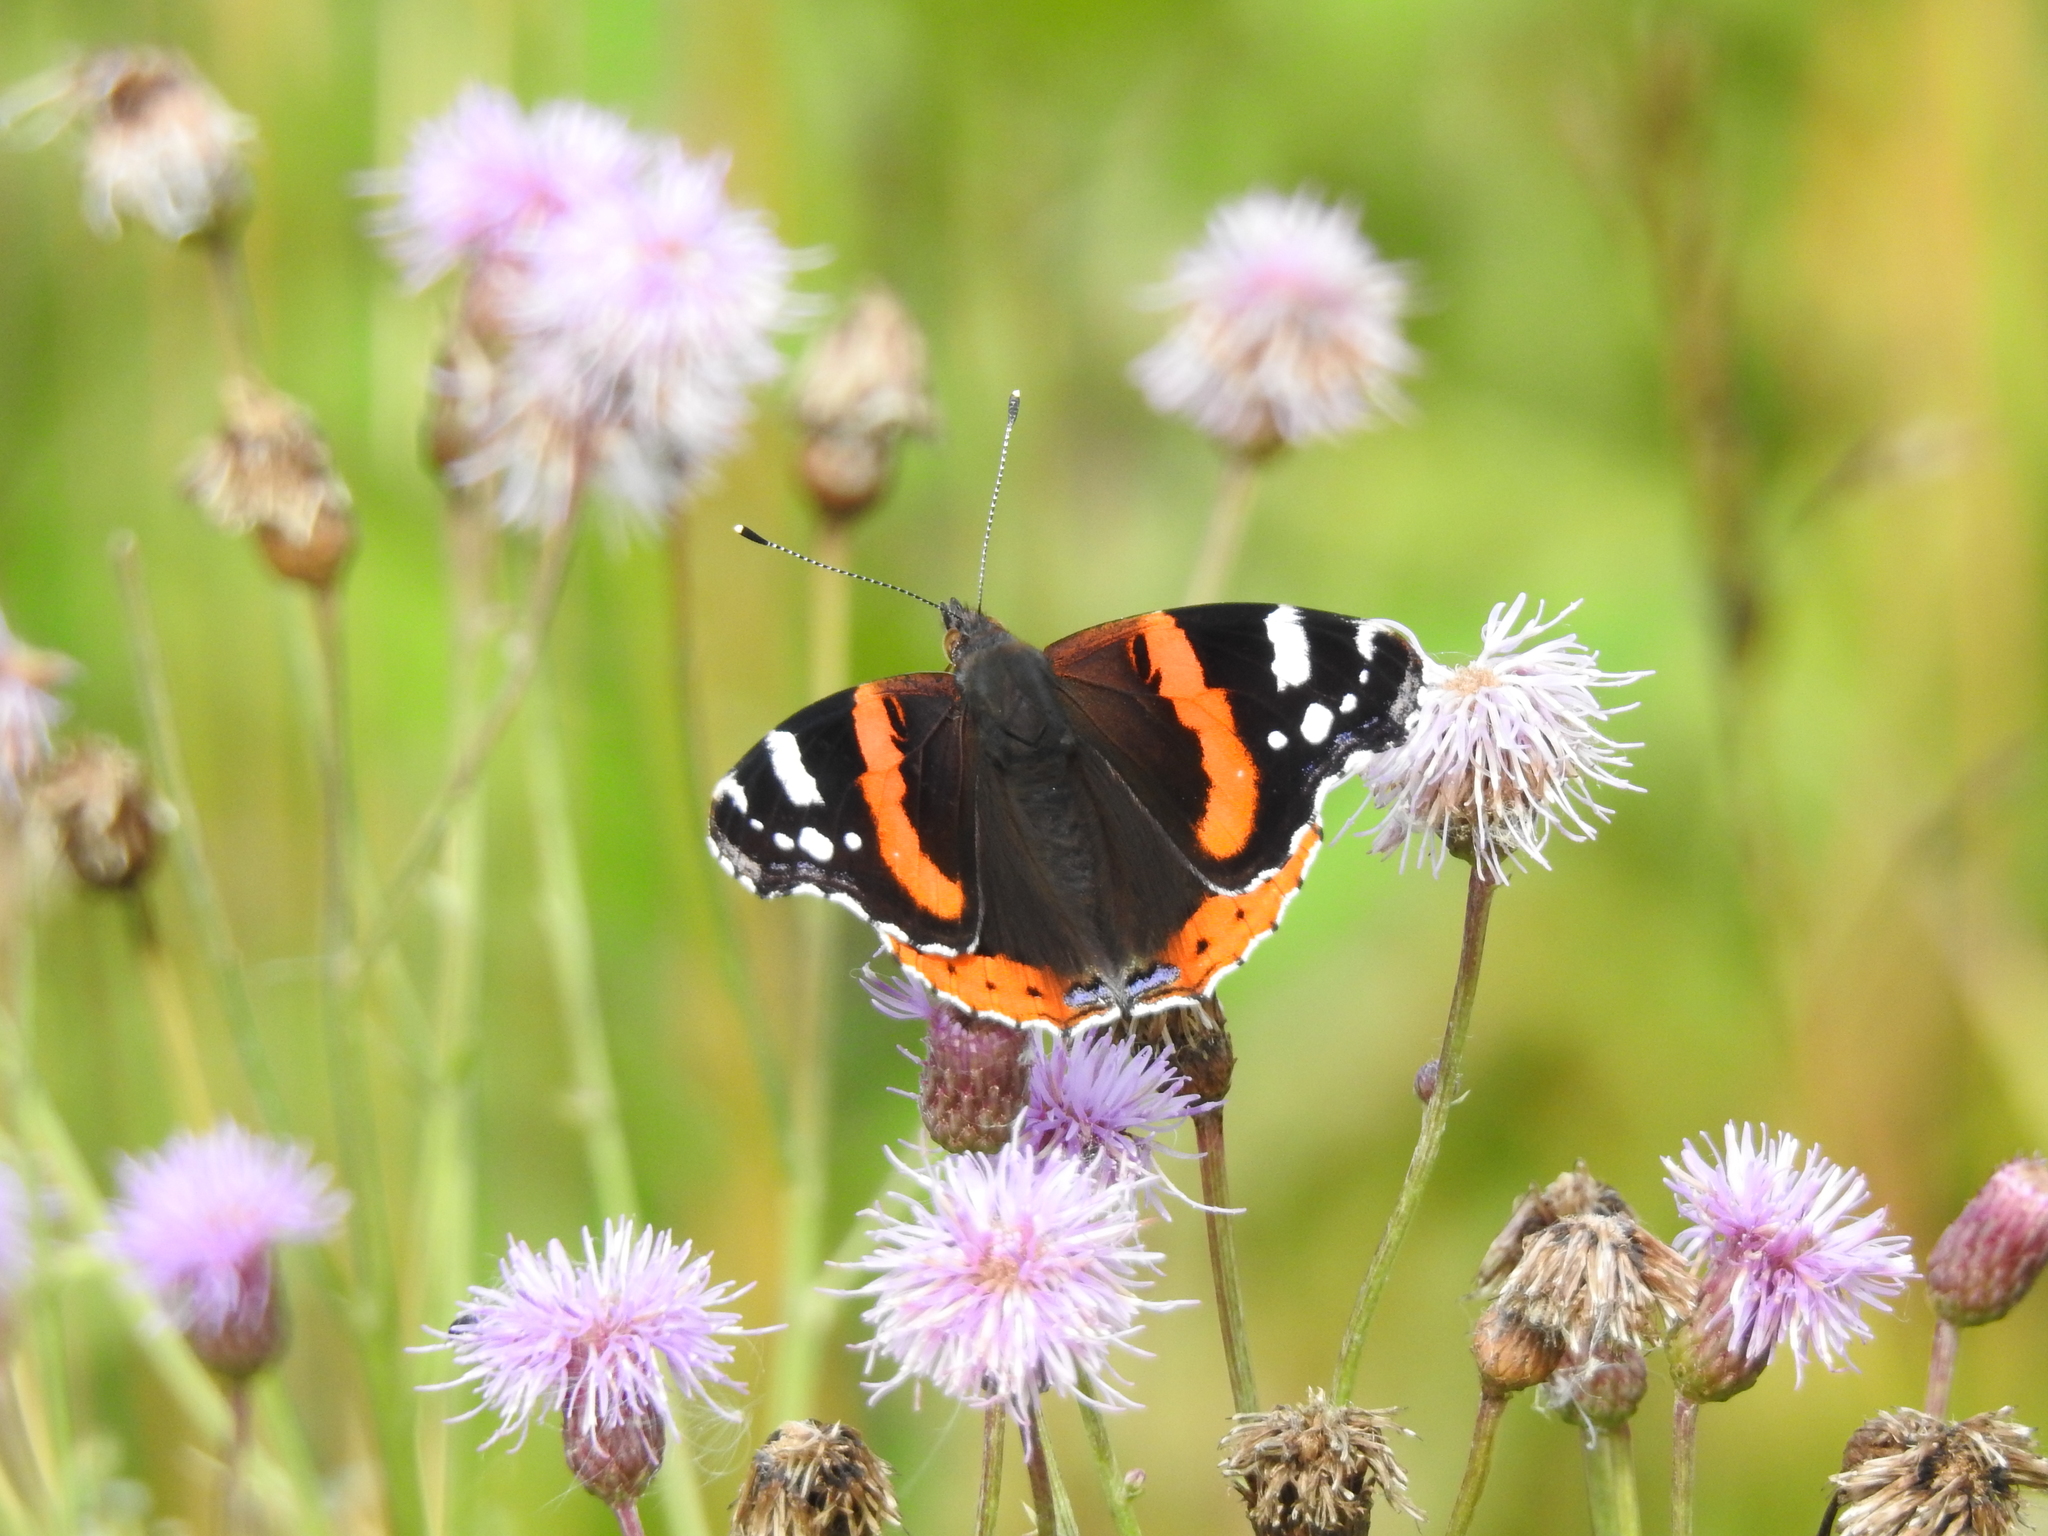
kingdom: Animalia
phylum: Arthropoda
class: Insecta
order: Lepidoptera
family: Nymphalidae
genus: Vanessa
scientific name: Vanessa atalanta
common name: Red admiral
